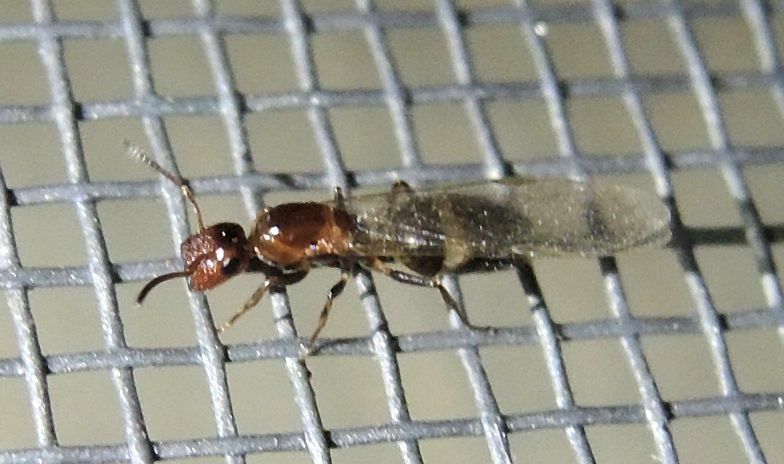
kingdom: Animalia
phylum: Arthropoda
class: Insecta
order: Hymenoptera
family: Formicidae
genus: Camponotus
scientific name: Camponotus truncatus
